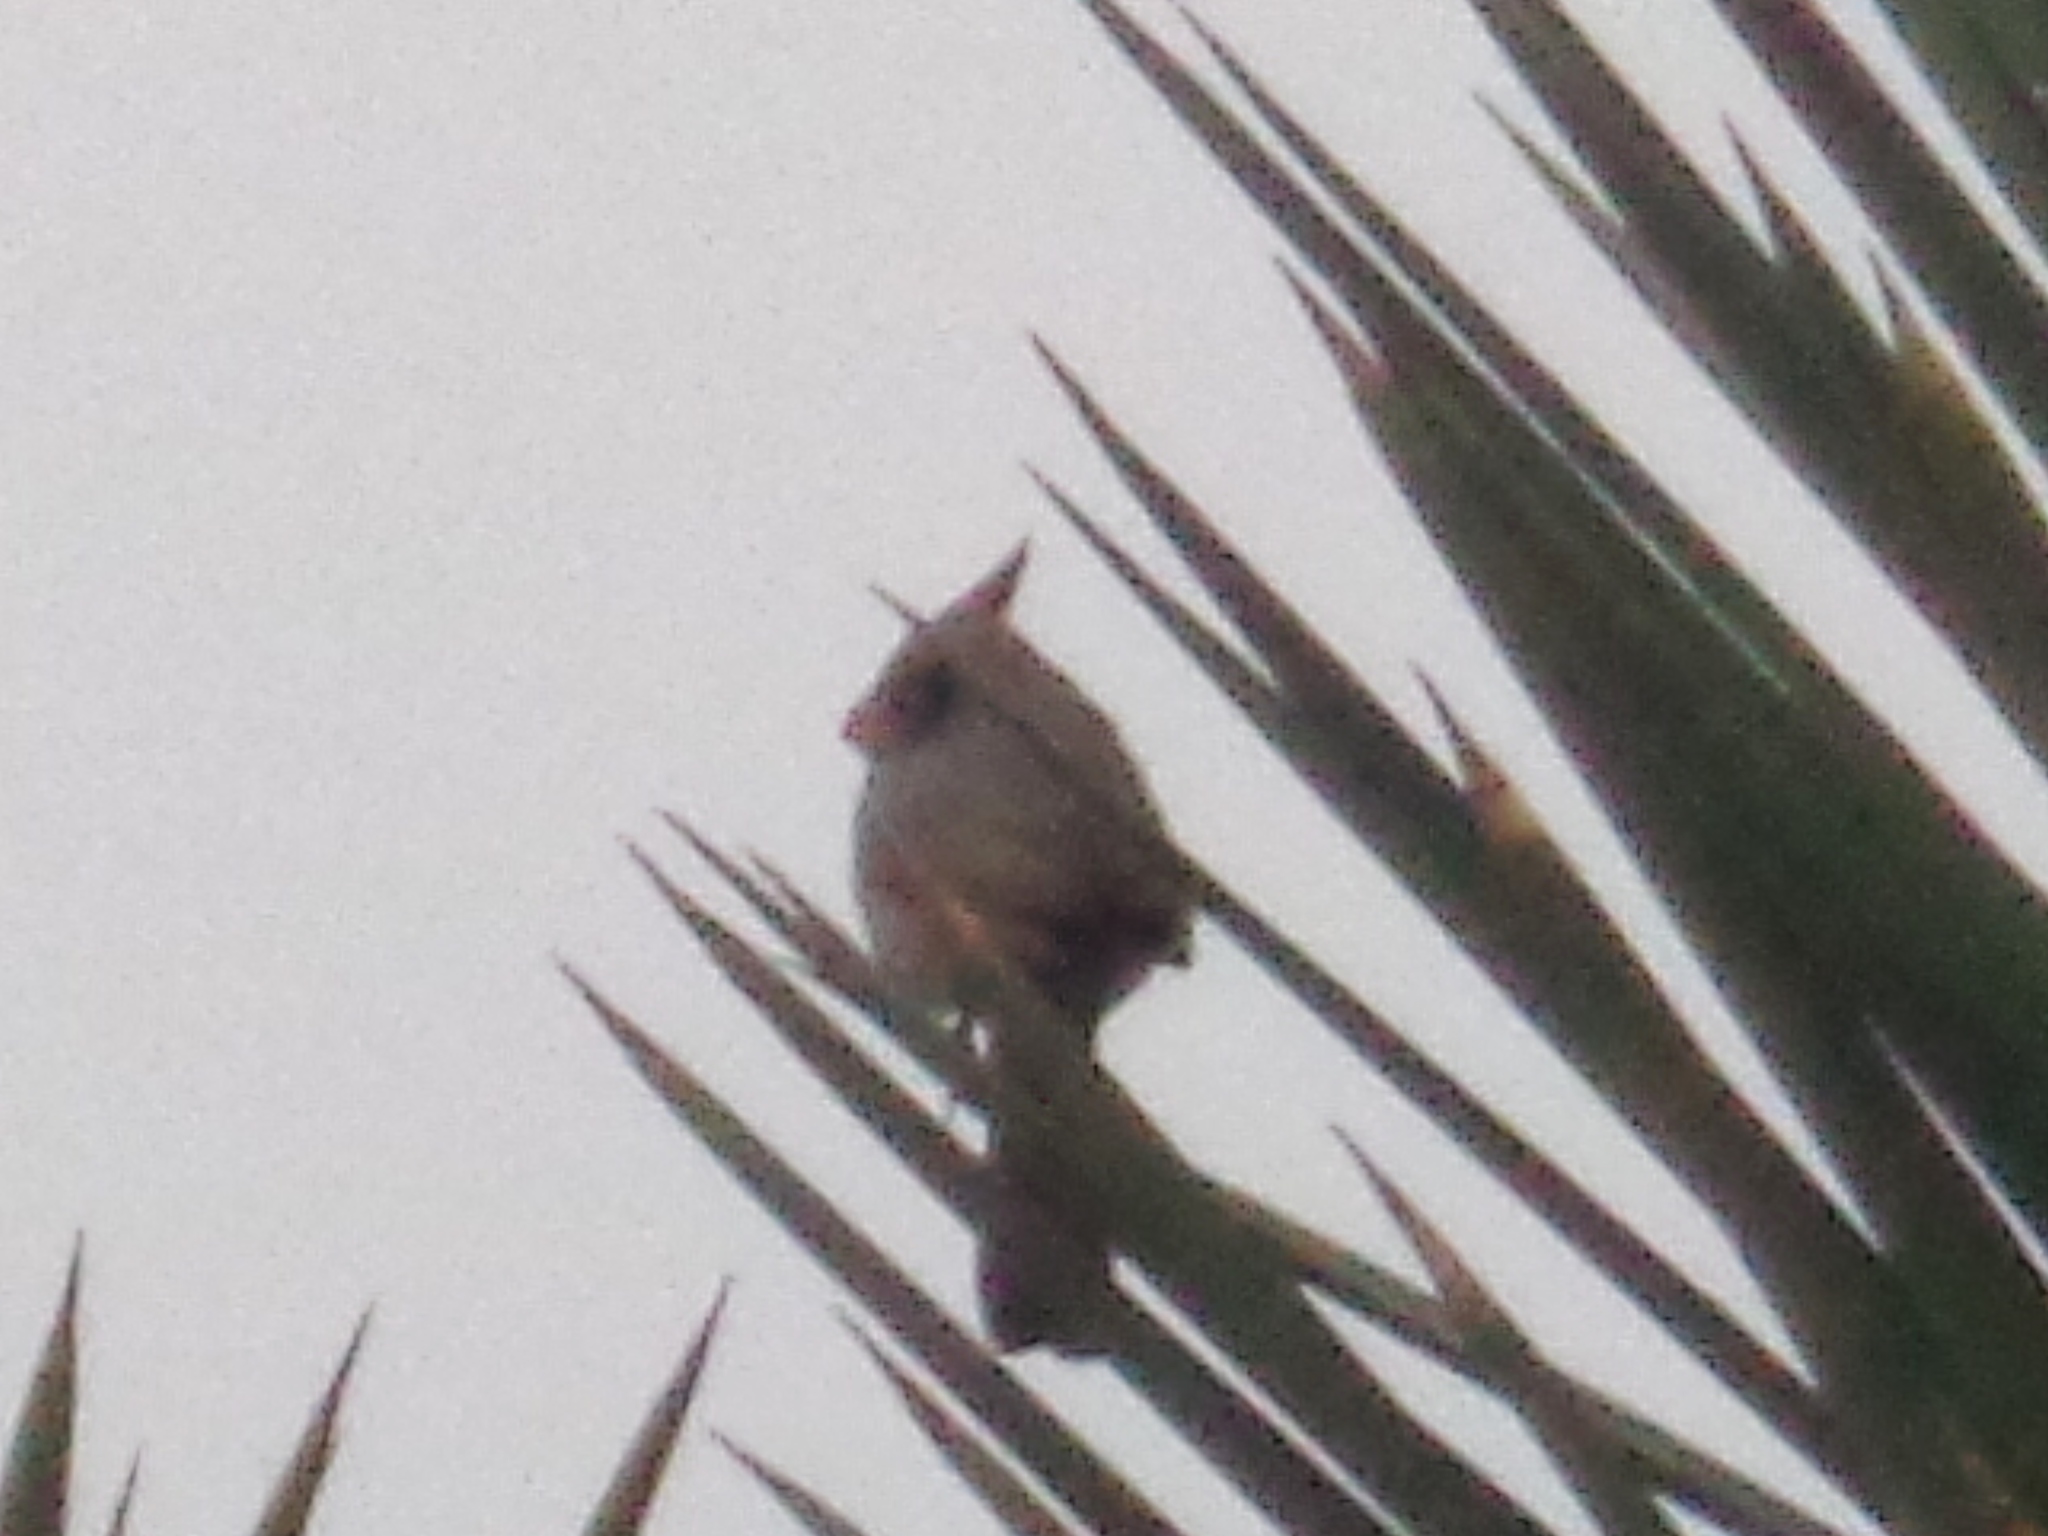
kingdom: Animalia
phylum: Chordata
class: Aves
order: Passeriformes
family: Cardinalidae
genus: Cardinalis
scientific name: Cardinalis sinuatus
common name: Pyrrhuloxia
